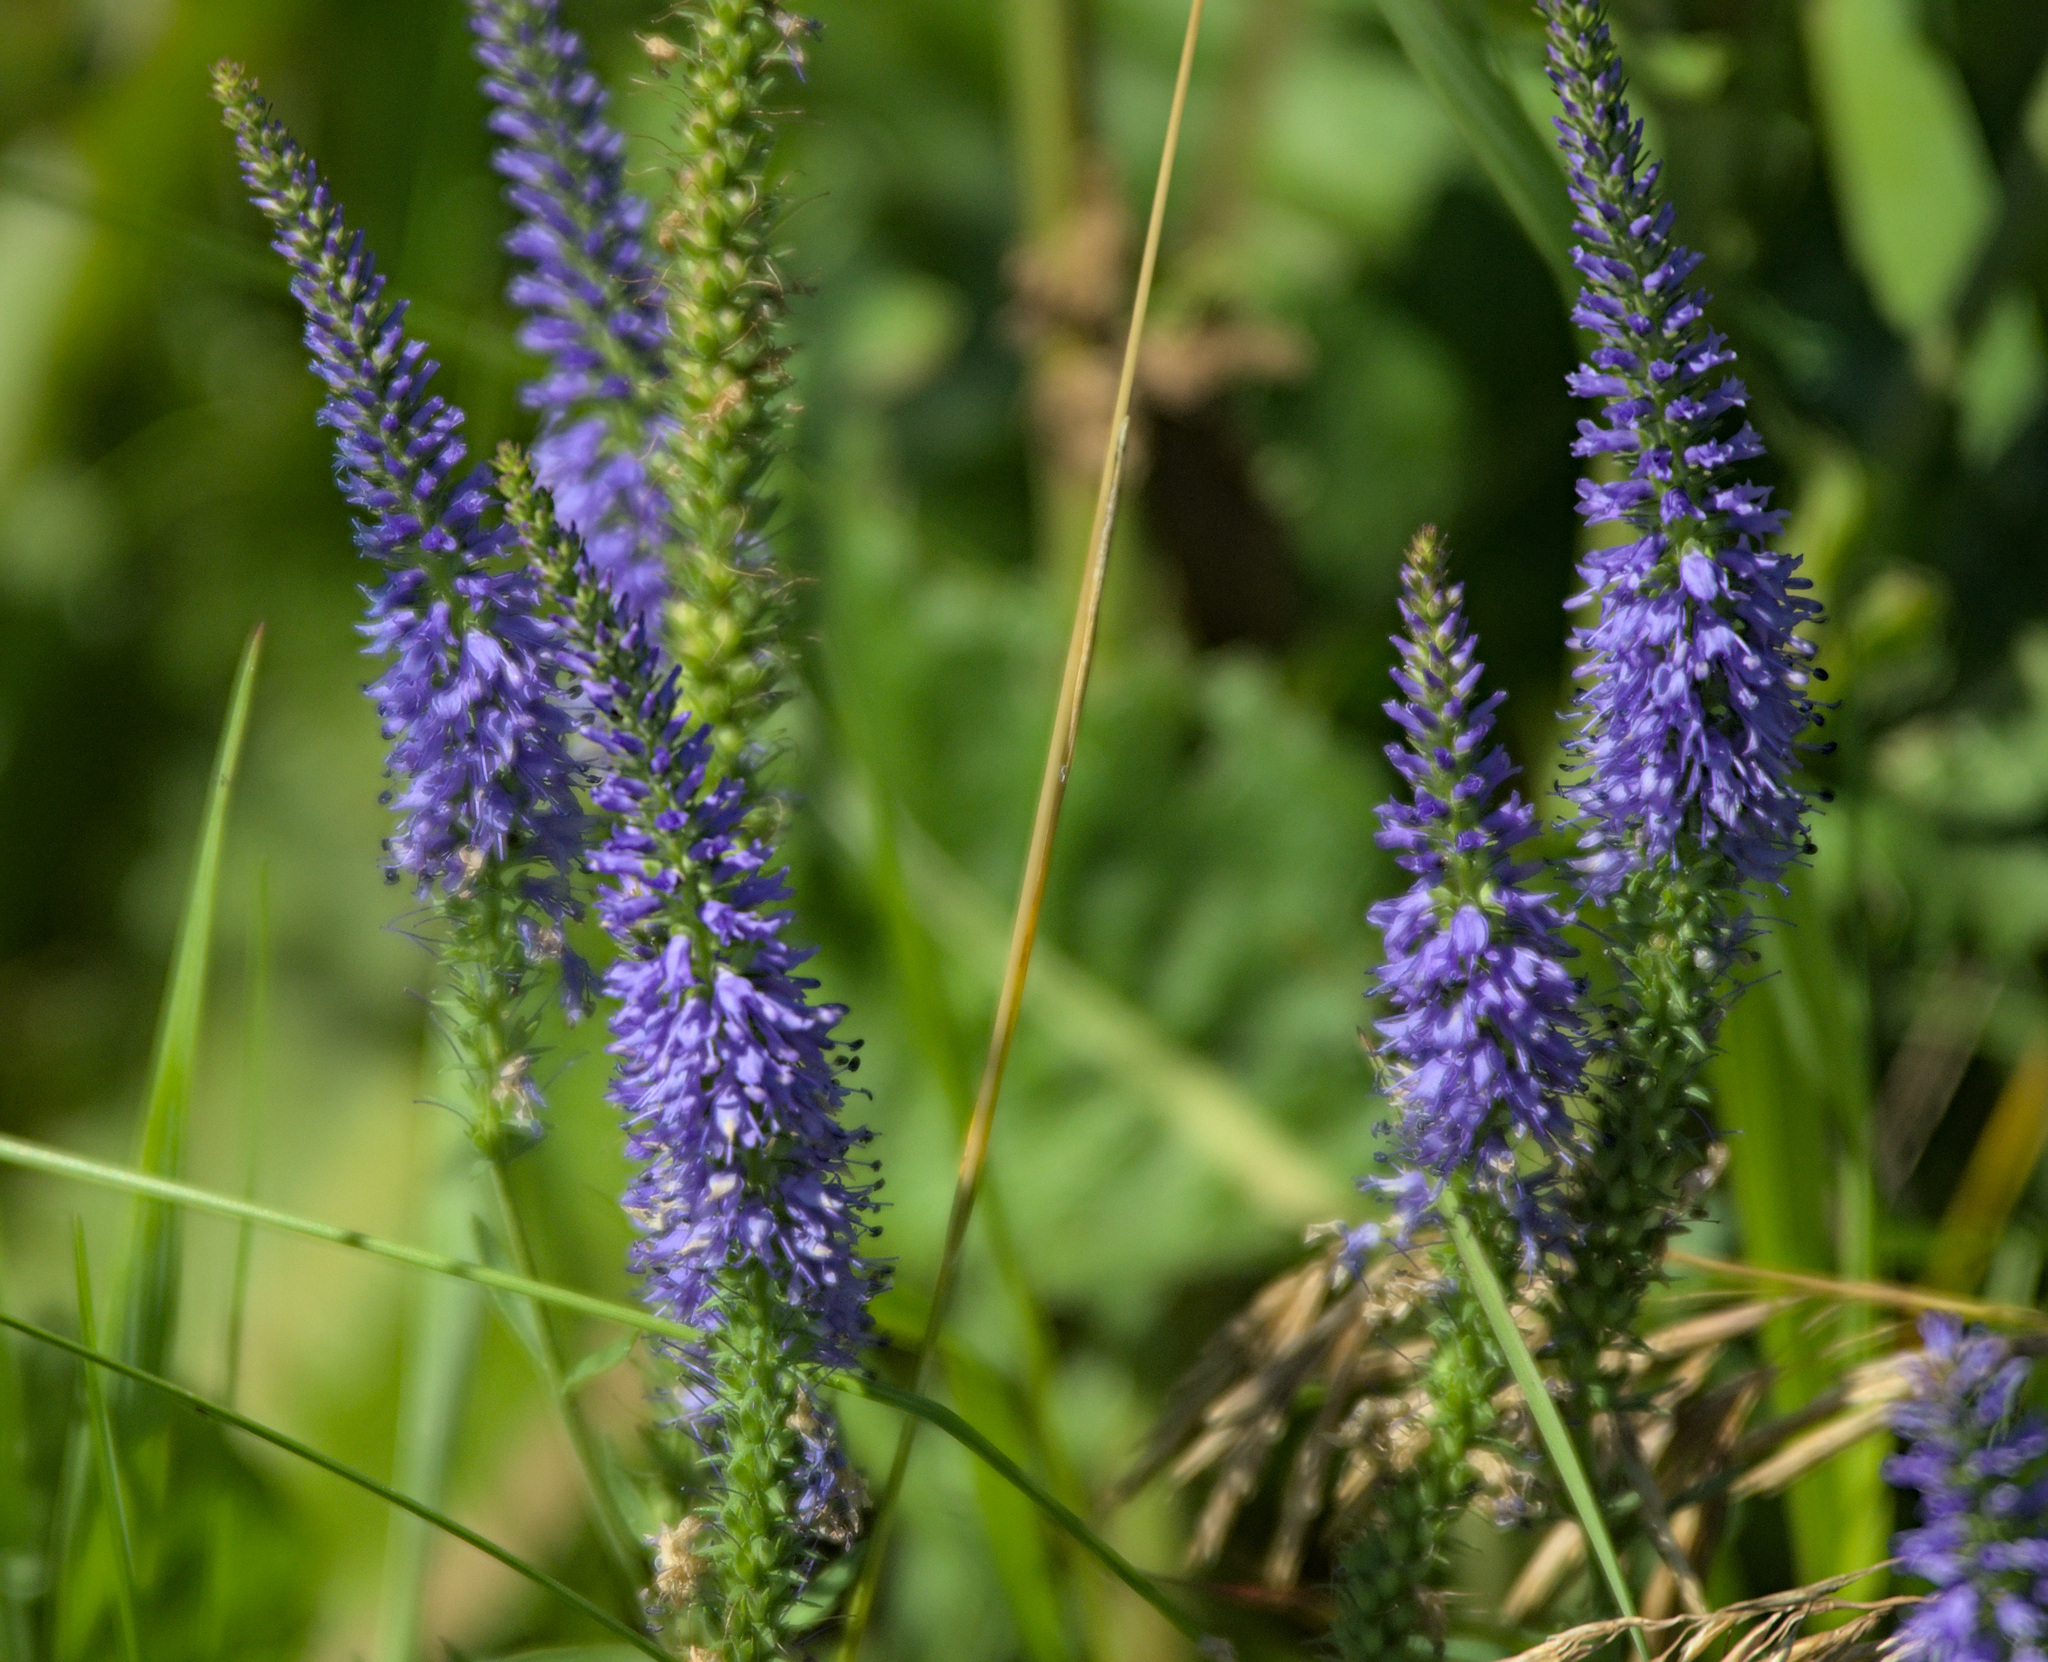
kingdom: Plantae
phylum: Tracheophyta
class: Magnoliopsida
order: Lamiales
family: Plantaginaceae
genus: Veronica
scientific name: Veronica spicata
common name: Spiked speedwell
